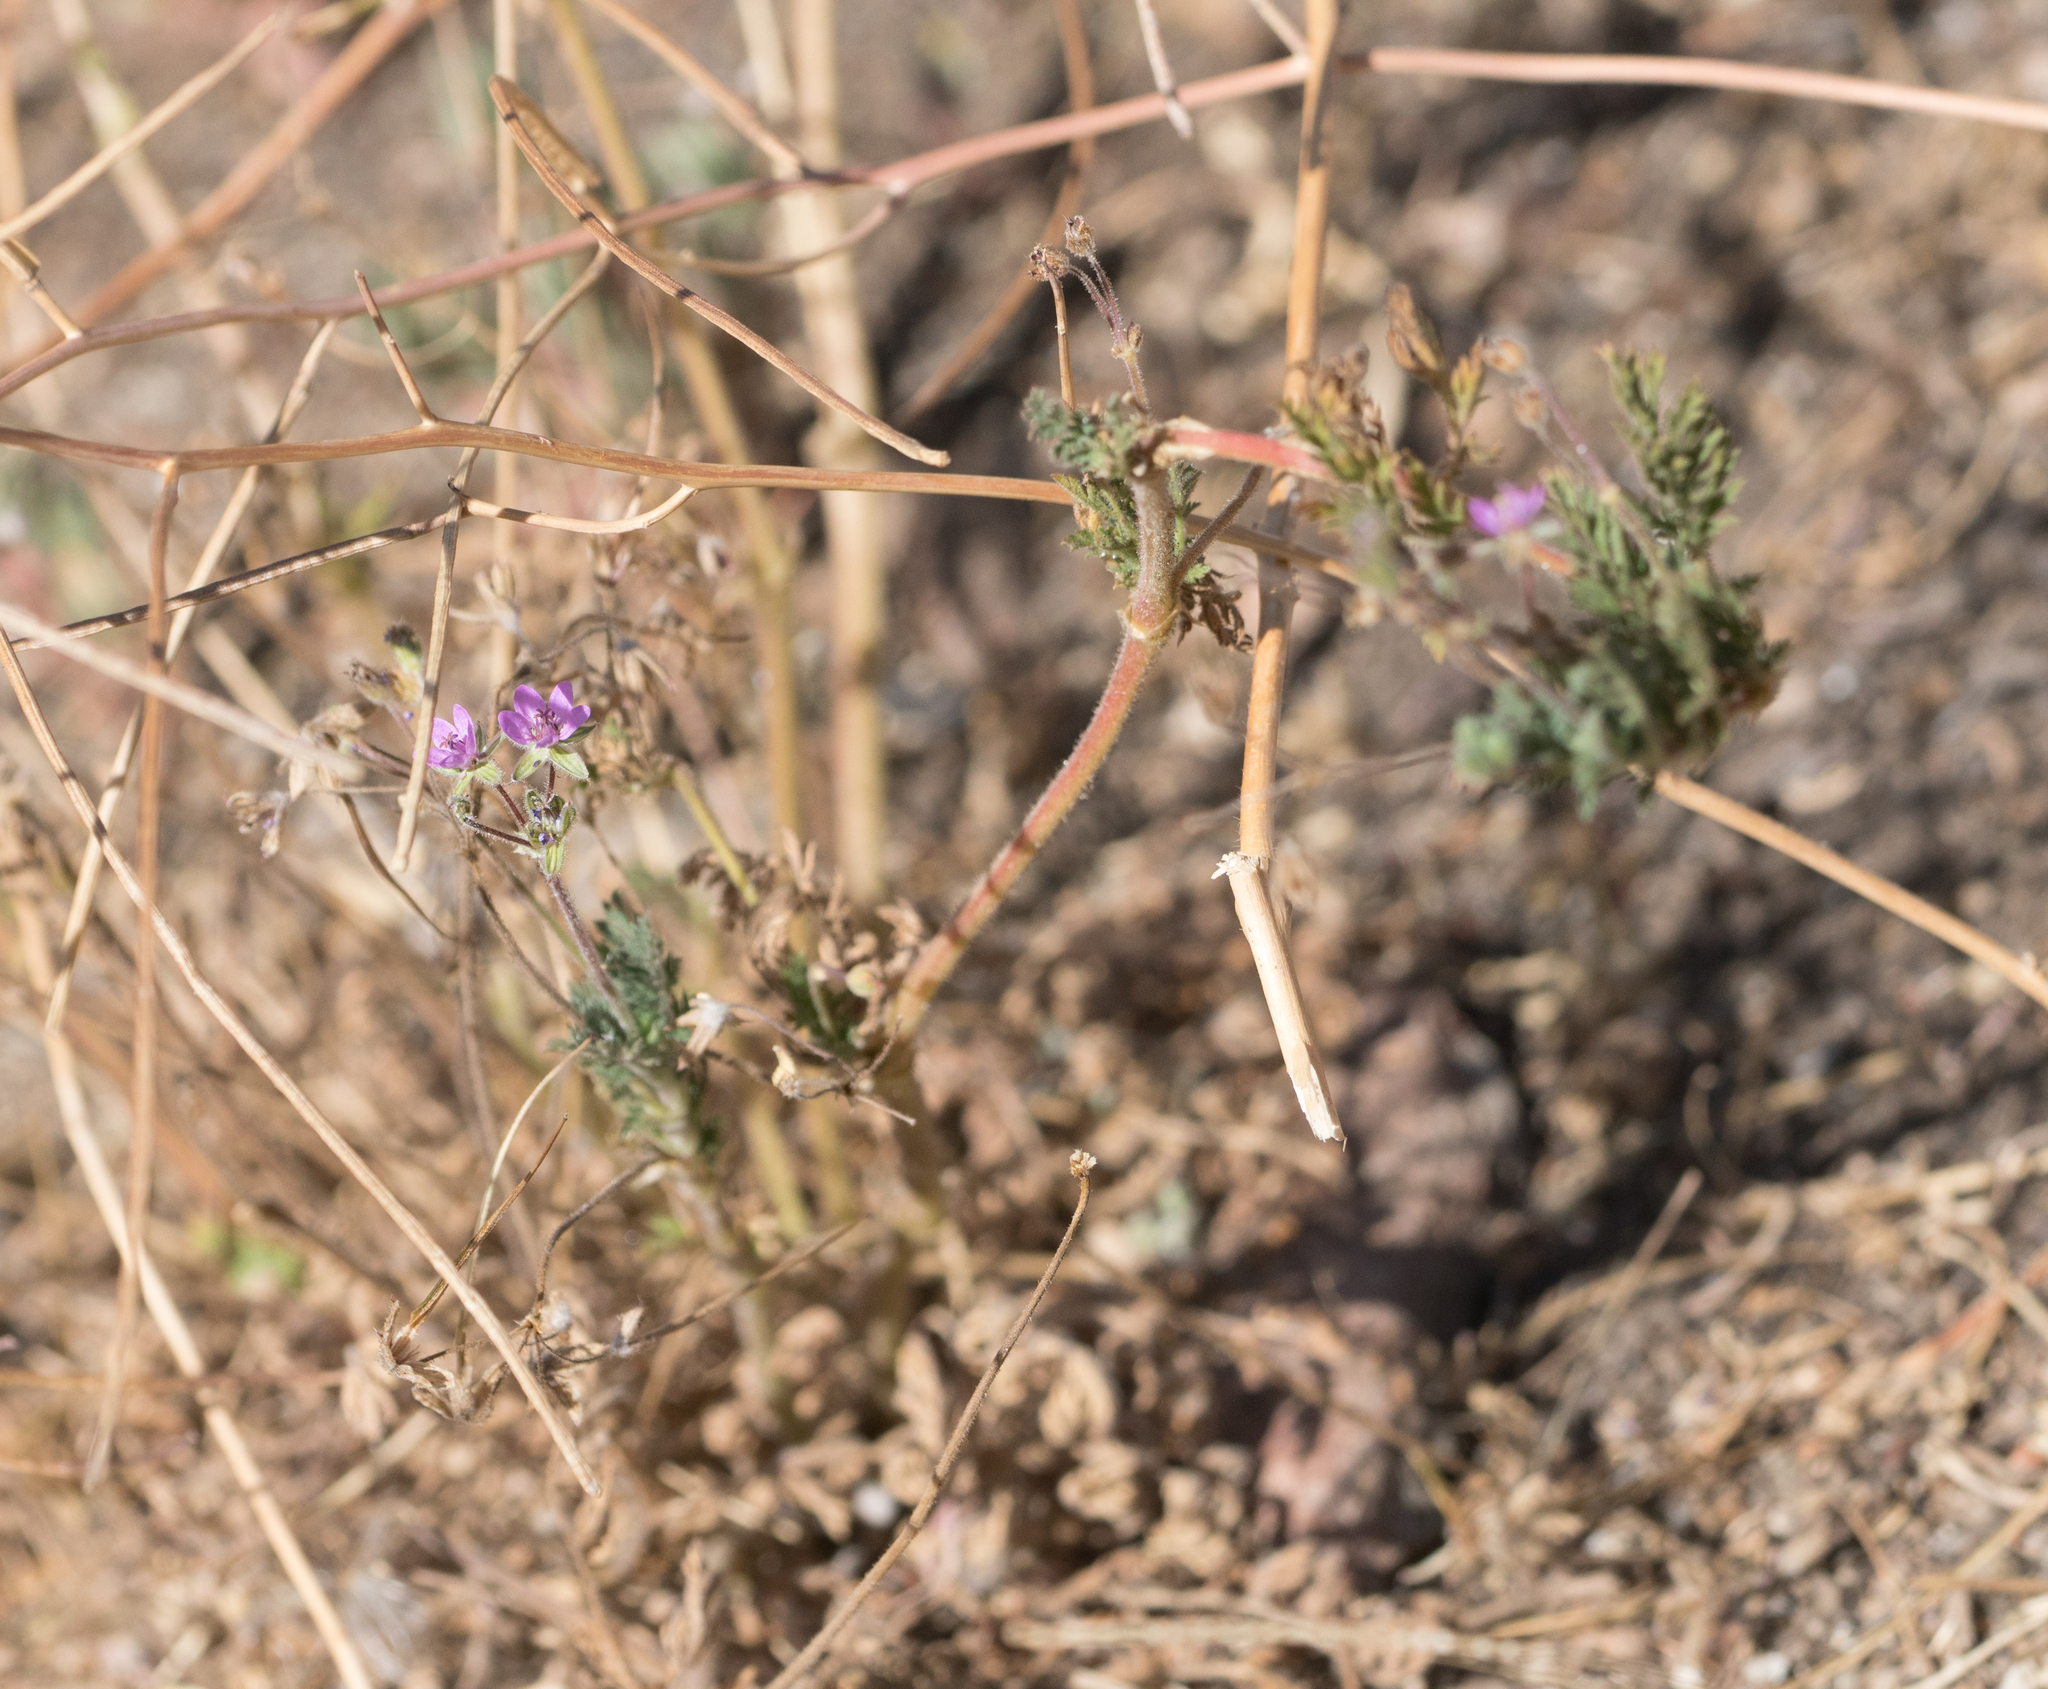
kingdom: Plantae
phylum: Tracheophyta
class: Magnoliopsida
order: Geraniales
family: Geraniaceae
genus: Erodium
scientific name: Erodium cicutarium
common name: Common stork's-bill
